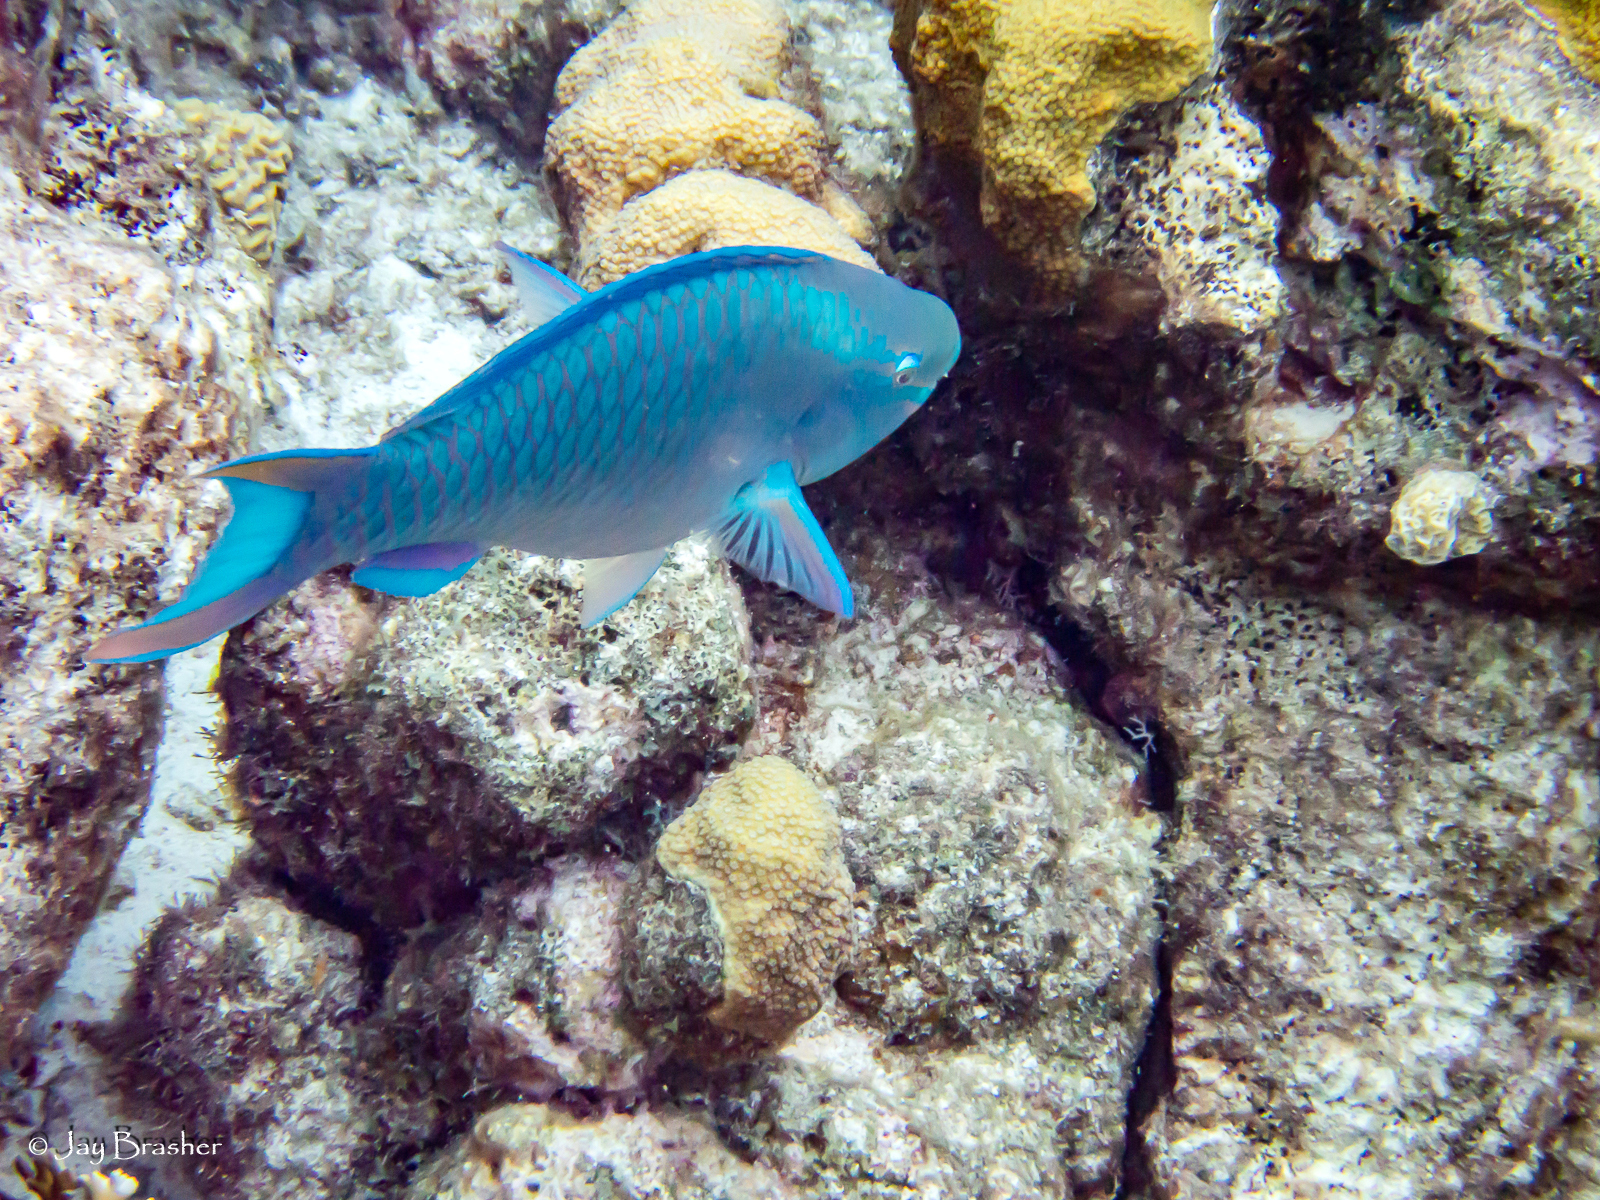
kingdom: Animalia
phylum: Chordata
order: Perciformes
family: Scaridae
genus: Scarus
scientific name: Scarus vetula
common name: Queen parrotfish
